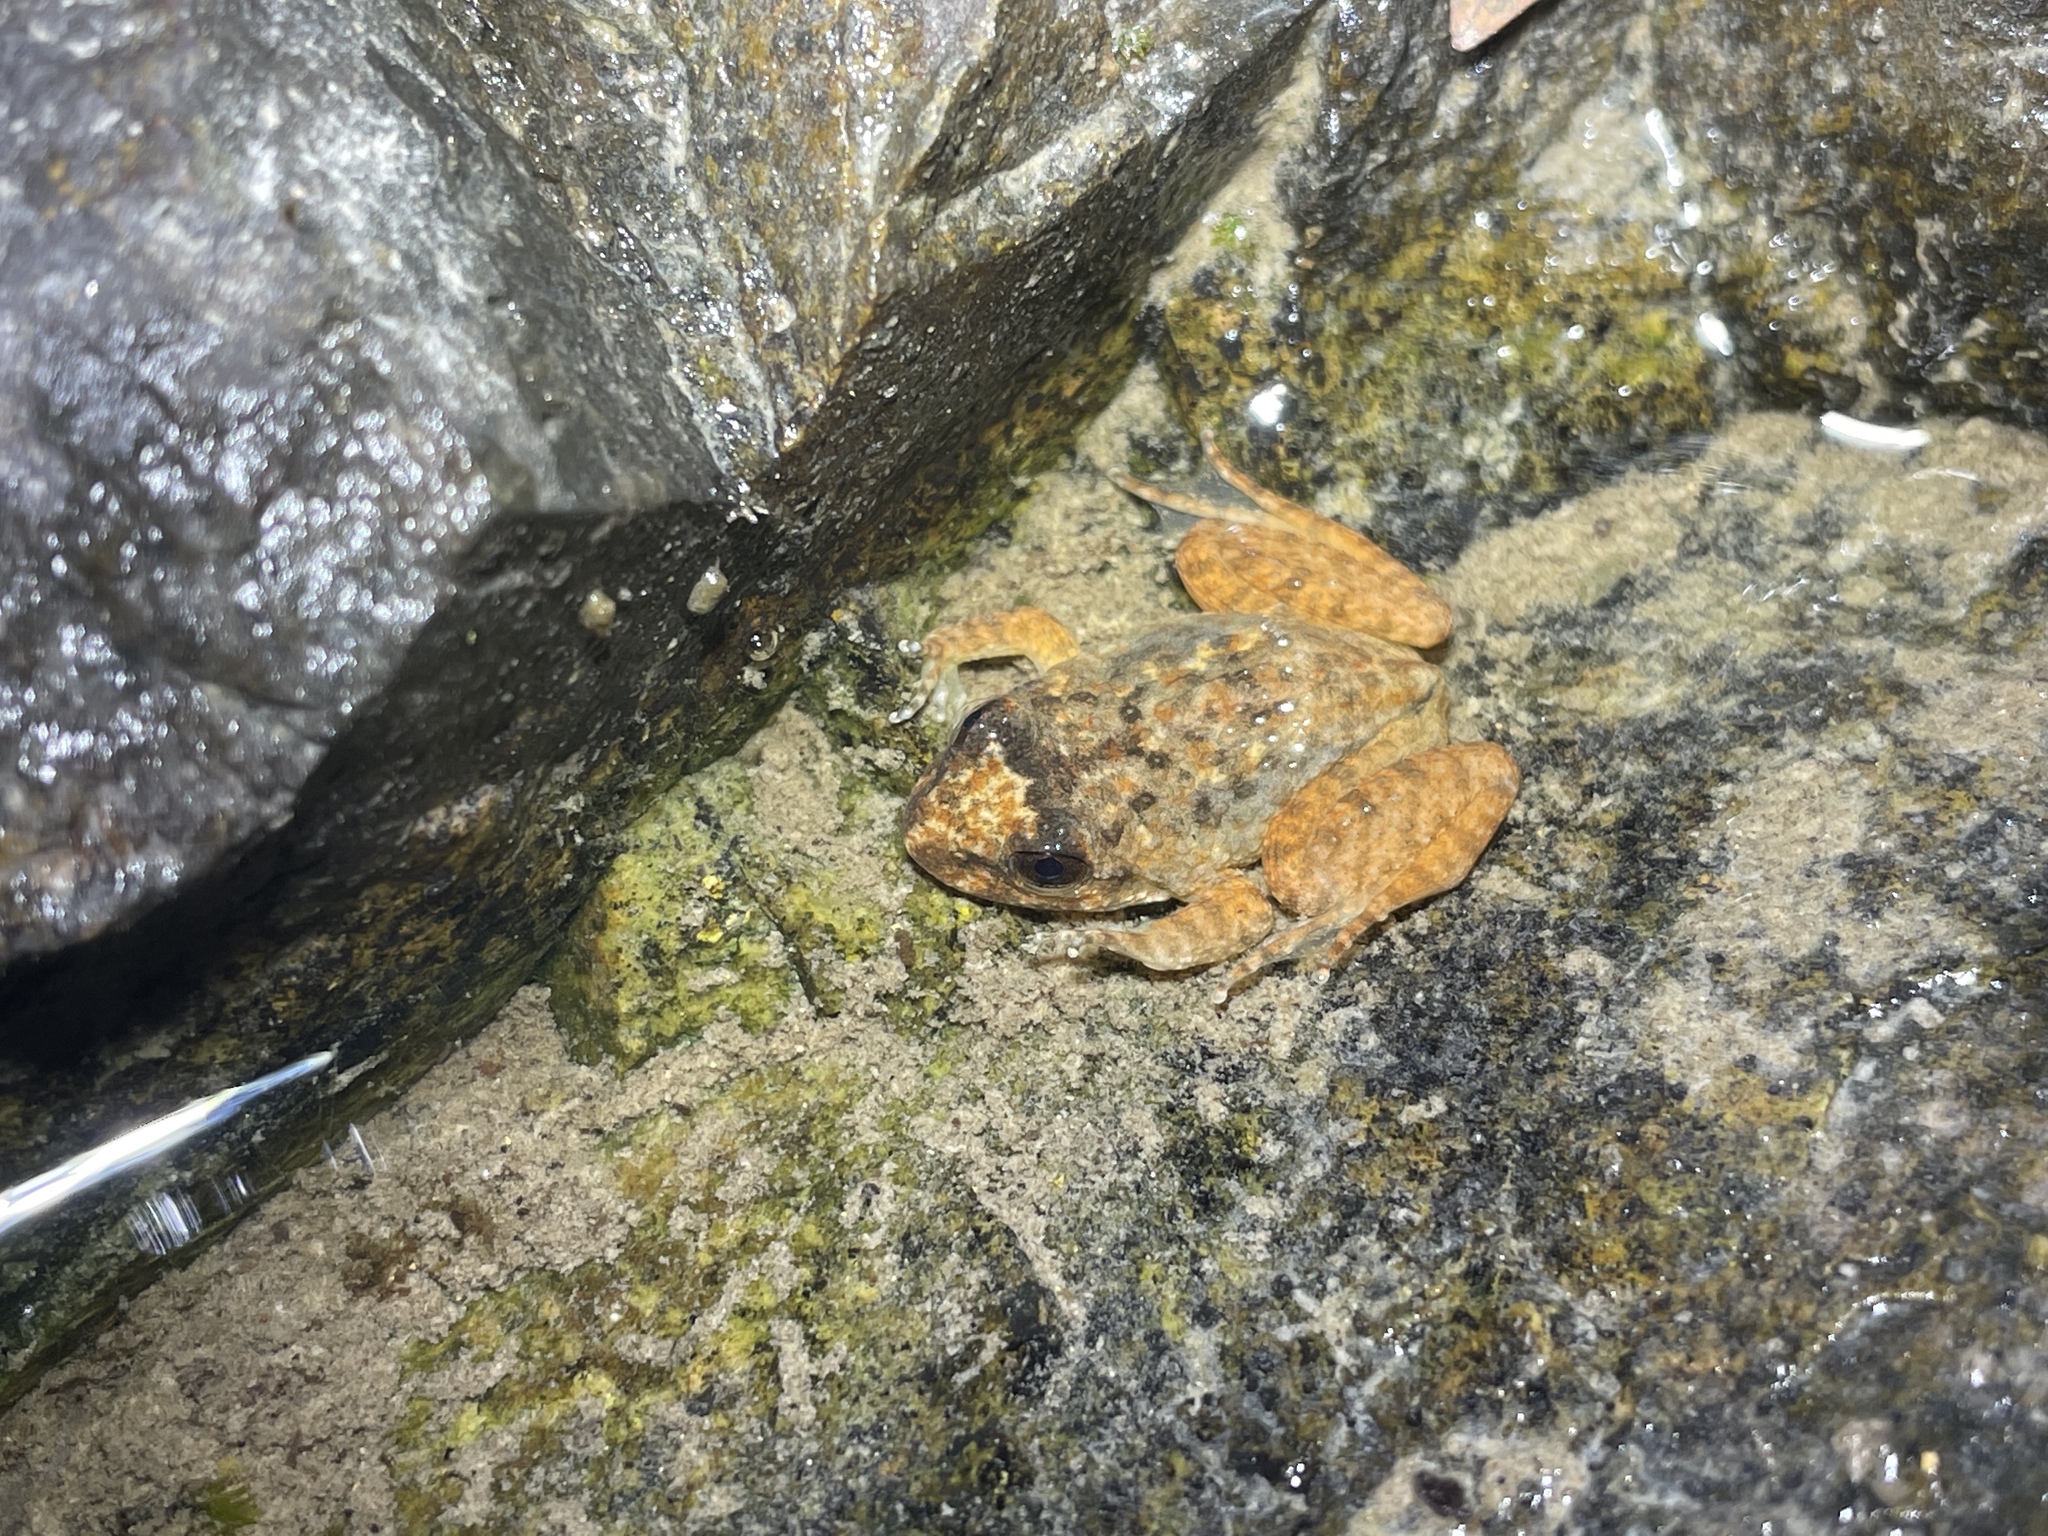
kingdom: Animalia
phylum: Chordata
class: Amphibia
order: Anura
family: Dicroglossidae
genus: Quasipaa
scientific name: Quasipaa exilispinosa
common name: Hong kong paa frog
